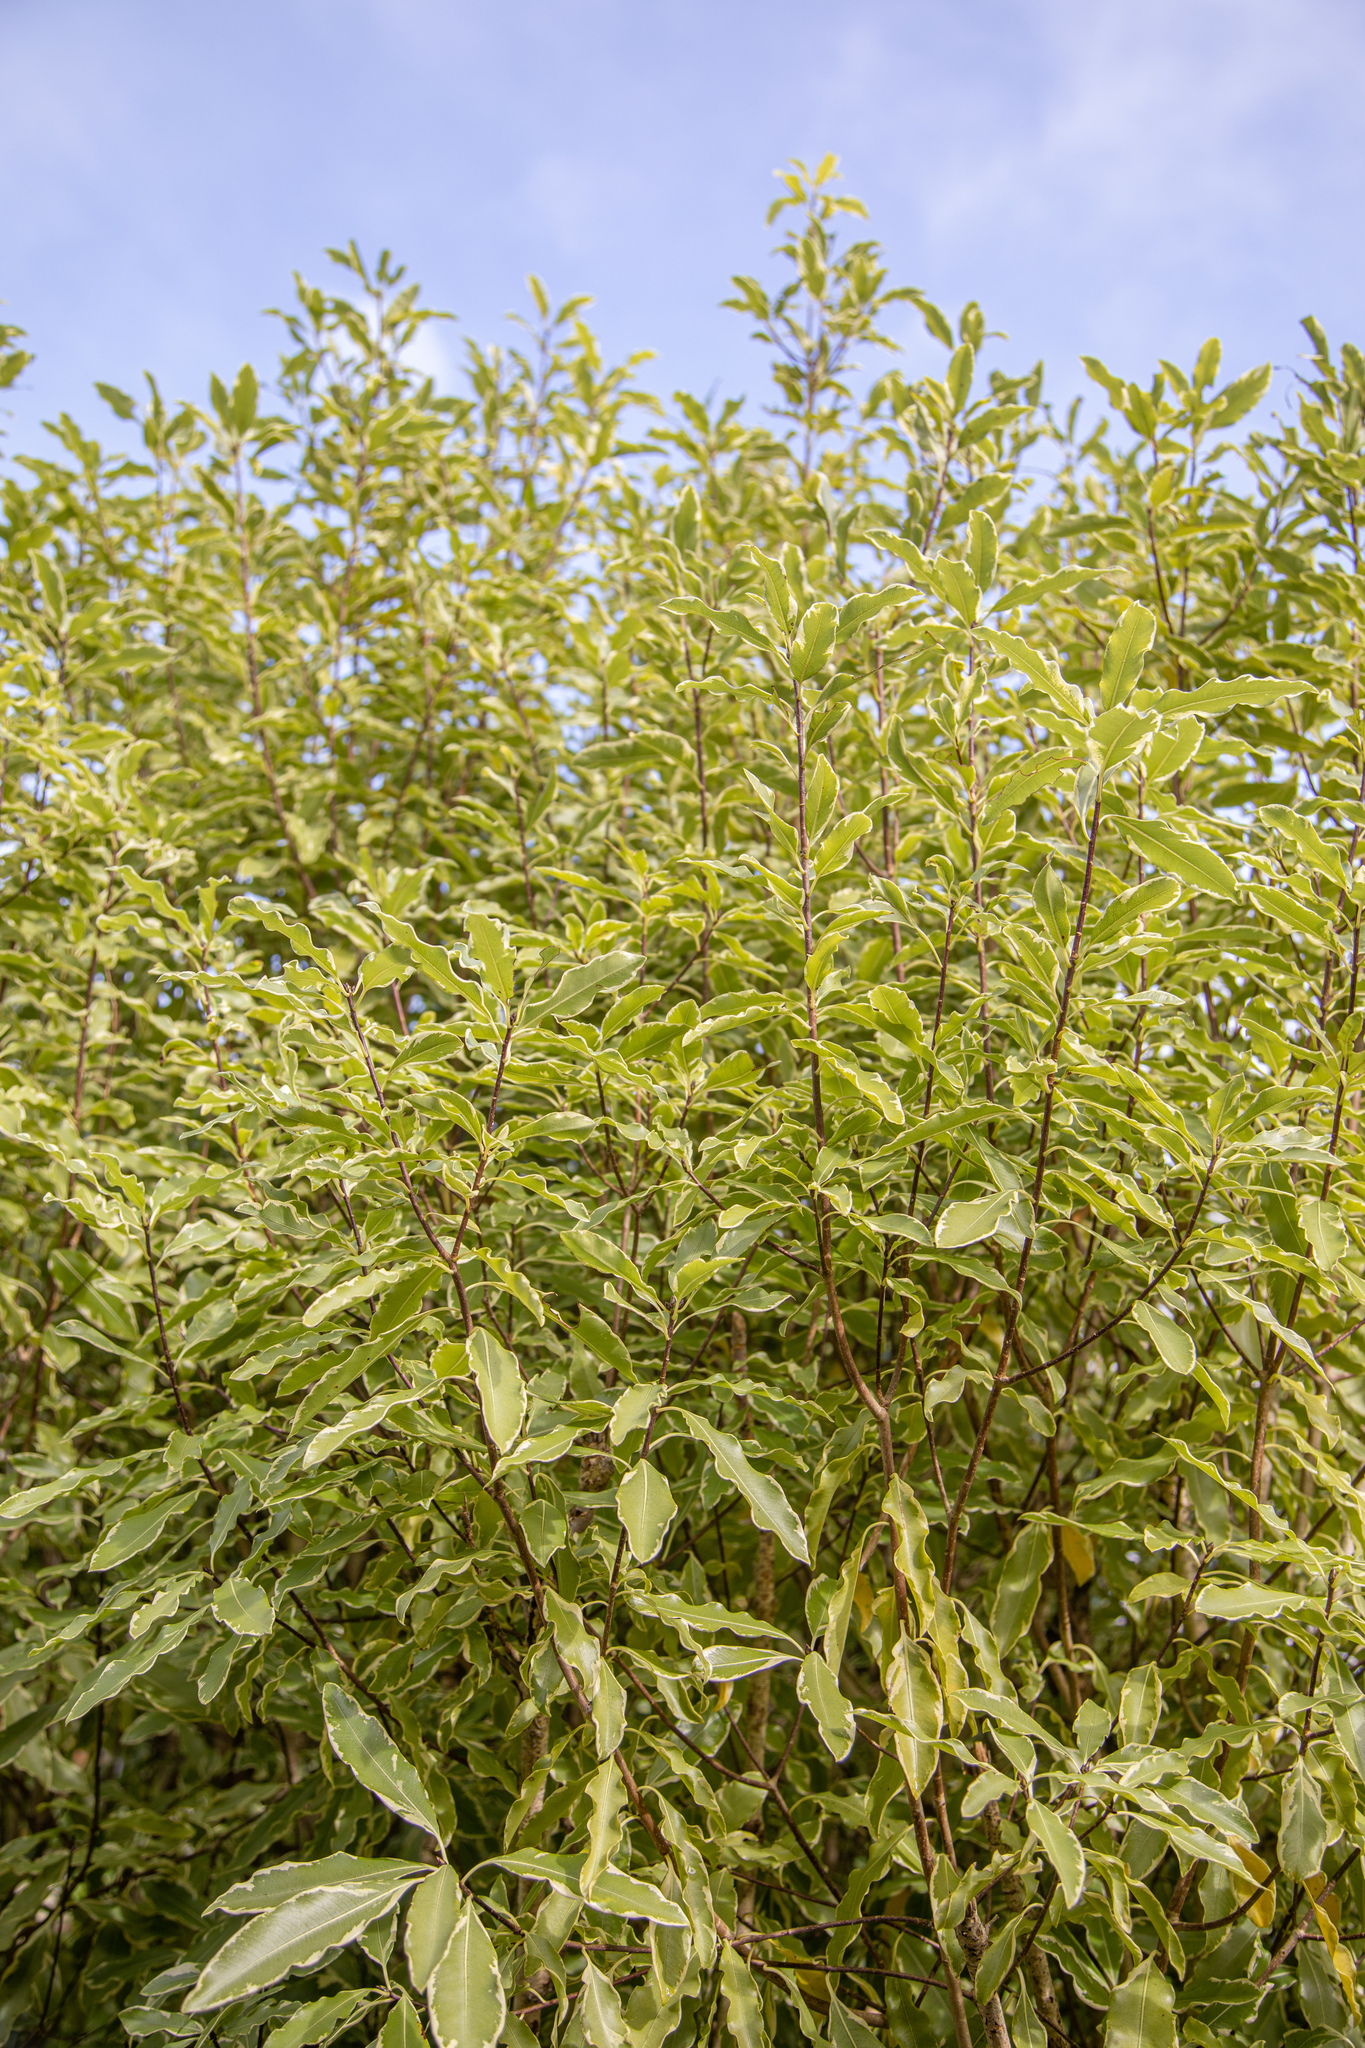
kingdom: Plantae
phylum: Tracheophyta
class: Magnoliopsida
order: Apiales
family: Pittosporaceae
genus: Pittosporum
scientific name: Pittosporum tenuifolium
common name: Kohuhu
